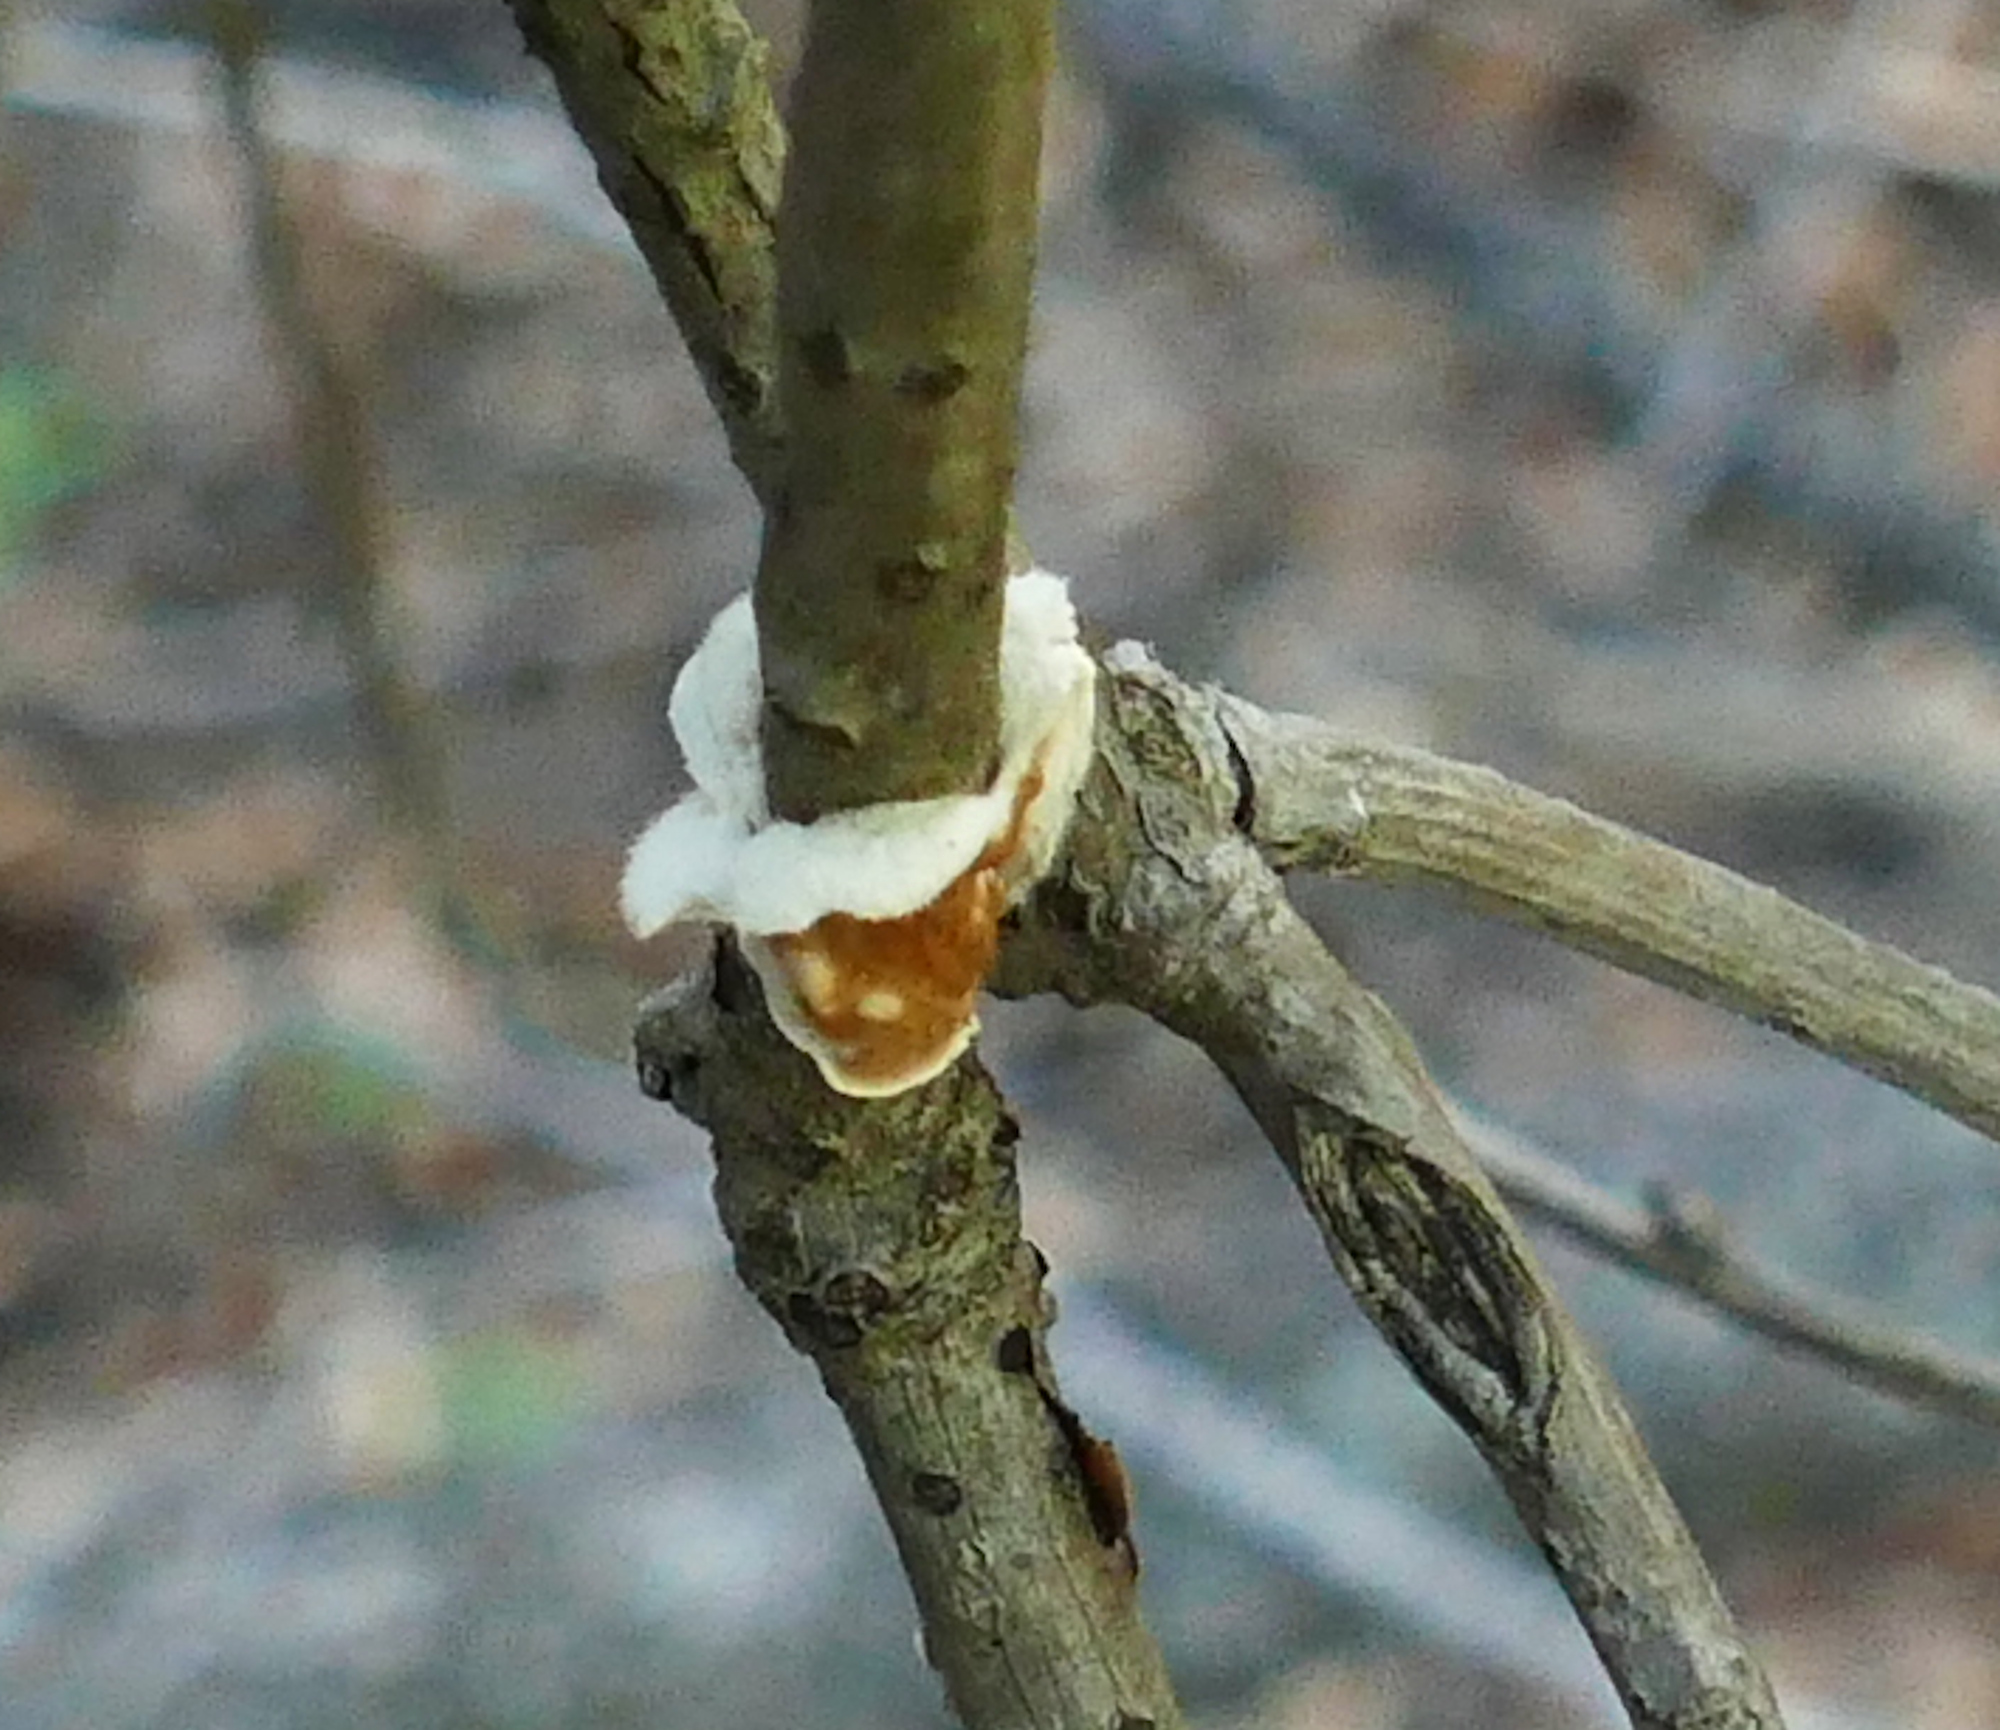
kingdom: Fungi
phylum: Basidiomycota
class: Agaricomycetes
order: Polyporales
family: Irpicaceae
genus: Byssomerulius
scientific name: Byssomerulius corium
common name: Netted crust
